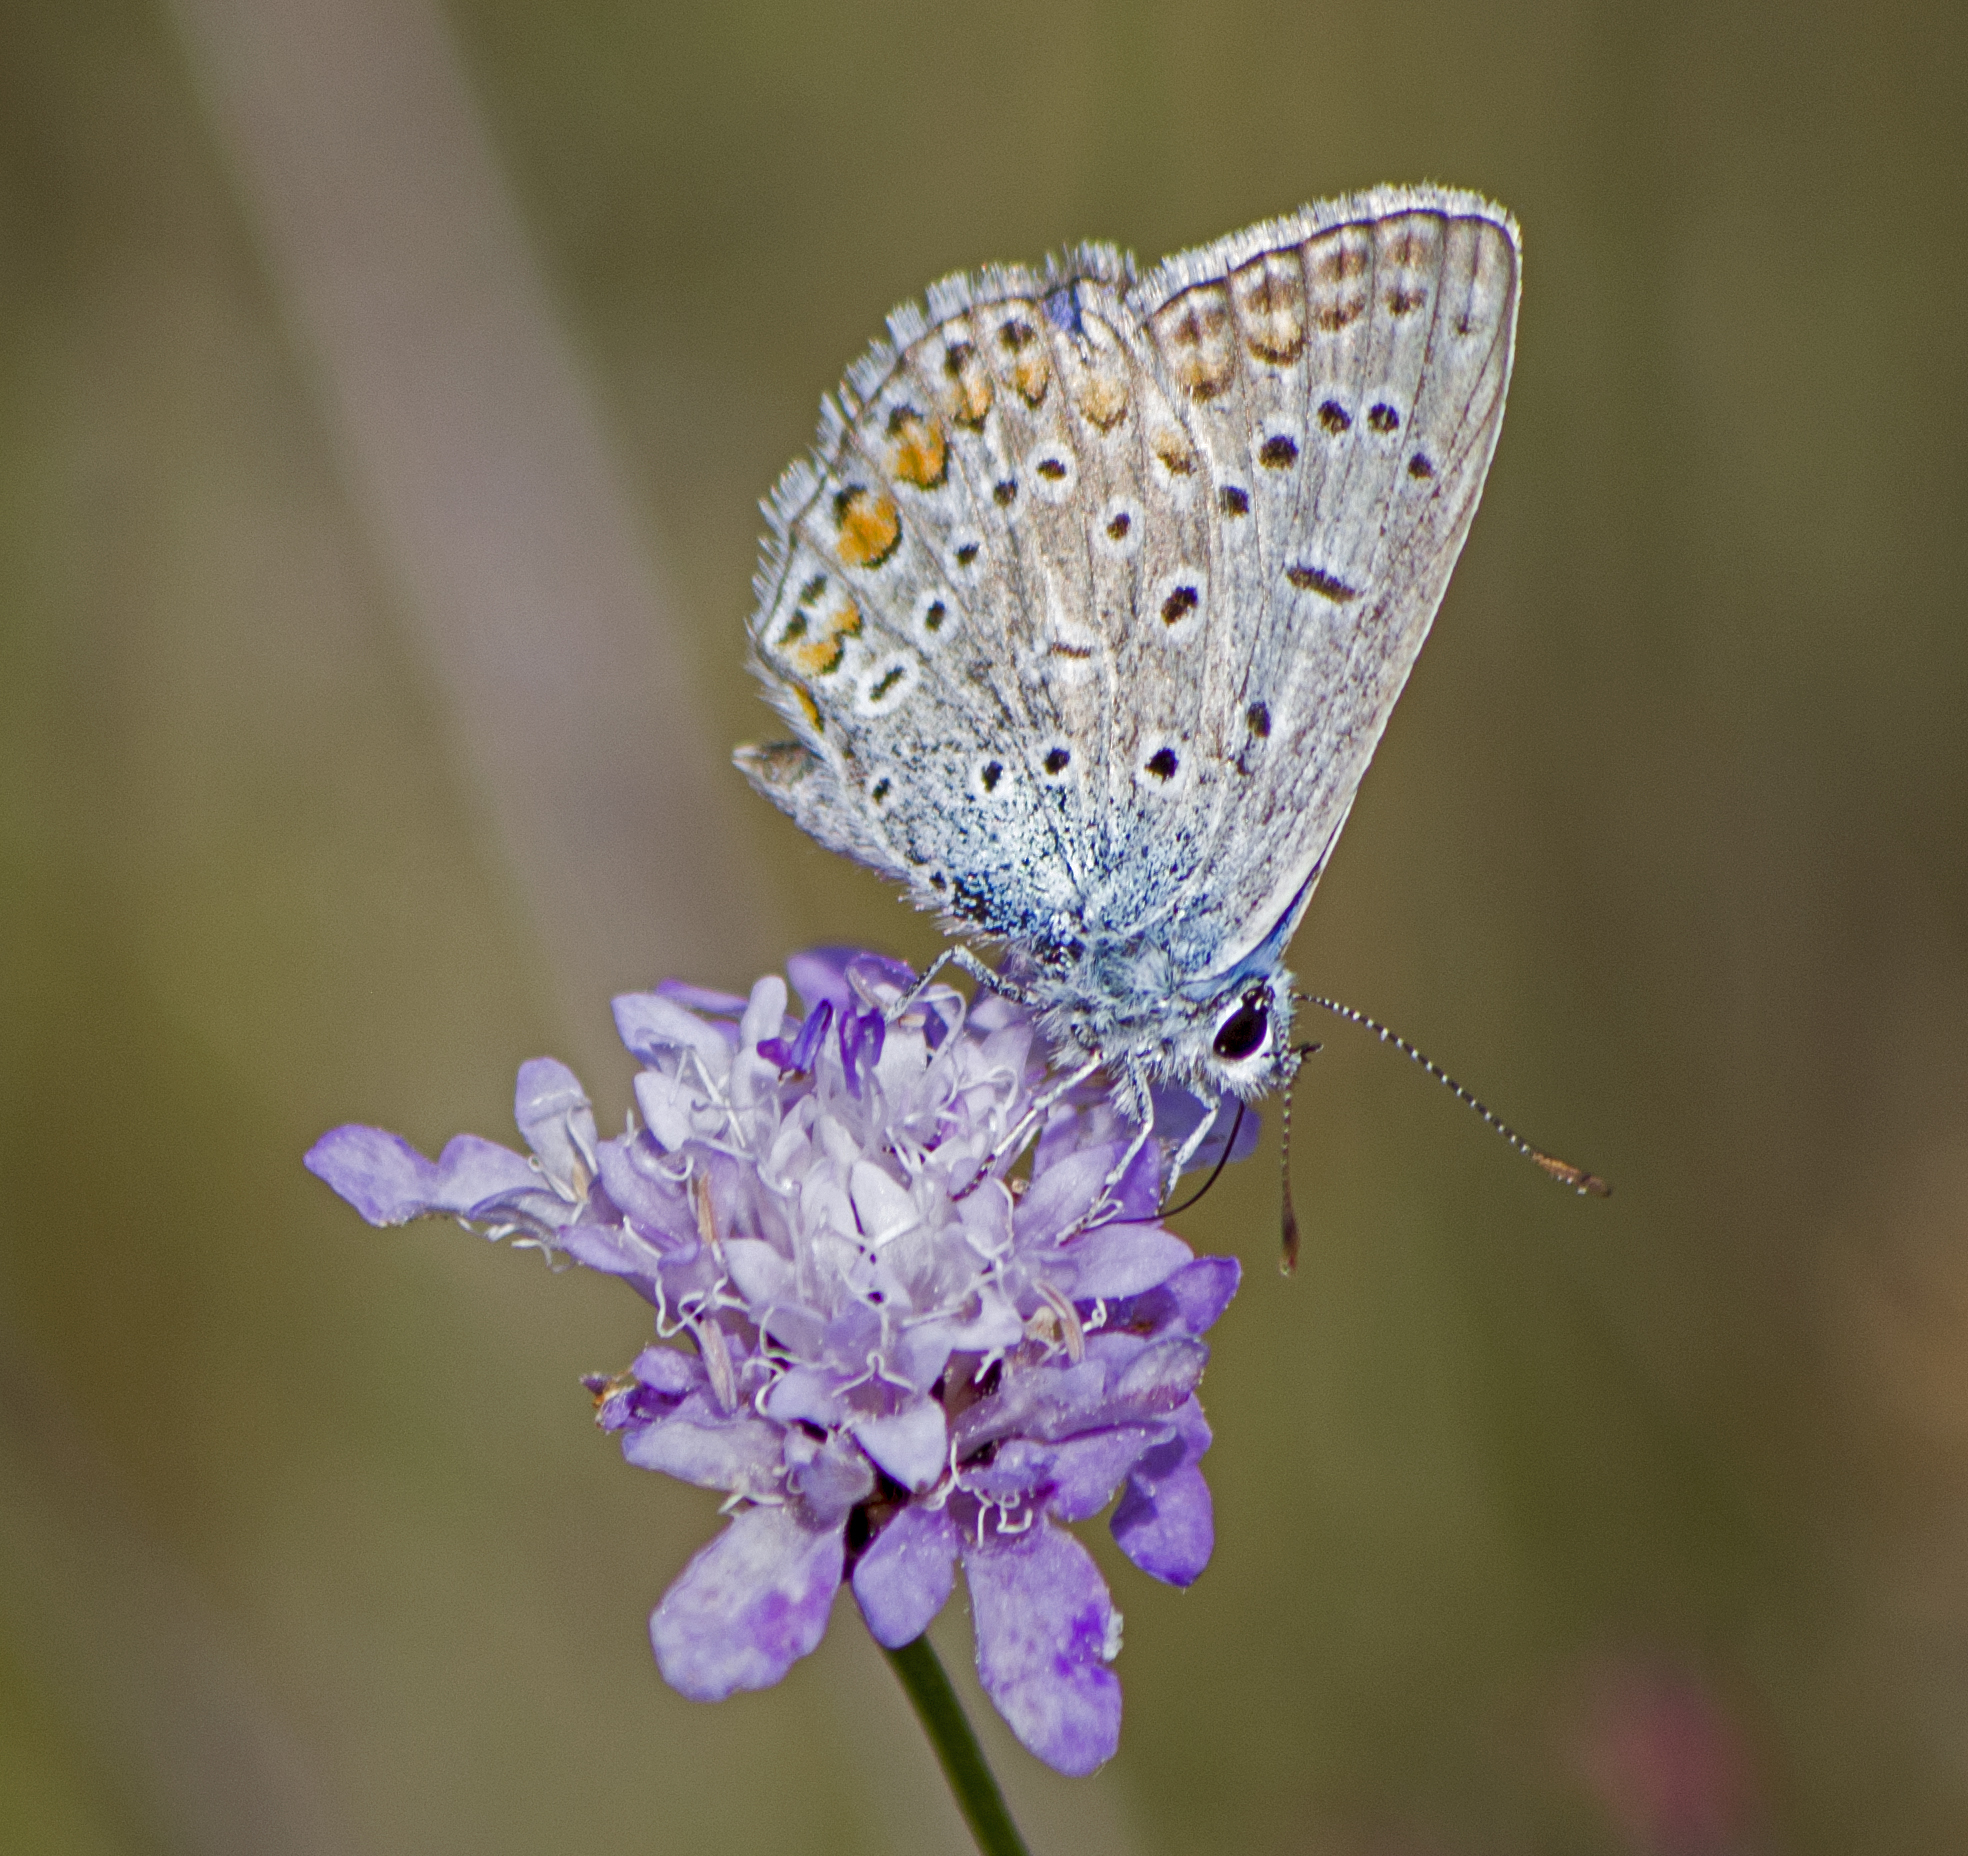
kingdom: Animalia
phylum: Arthropoda
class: Insecta
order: Lepidoptera
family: Lycaenidae
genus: Polyommatus
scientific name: Polyommatus icarus
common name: Common blue
